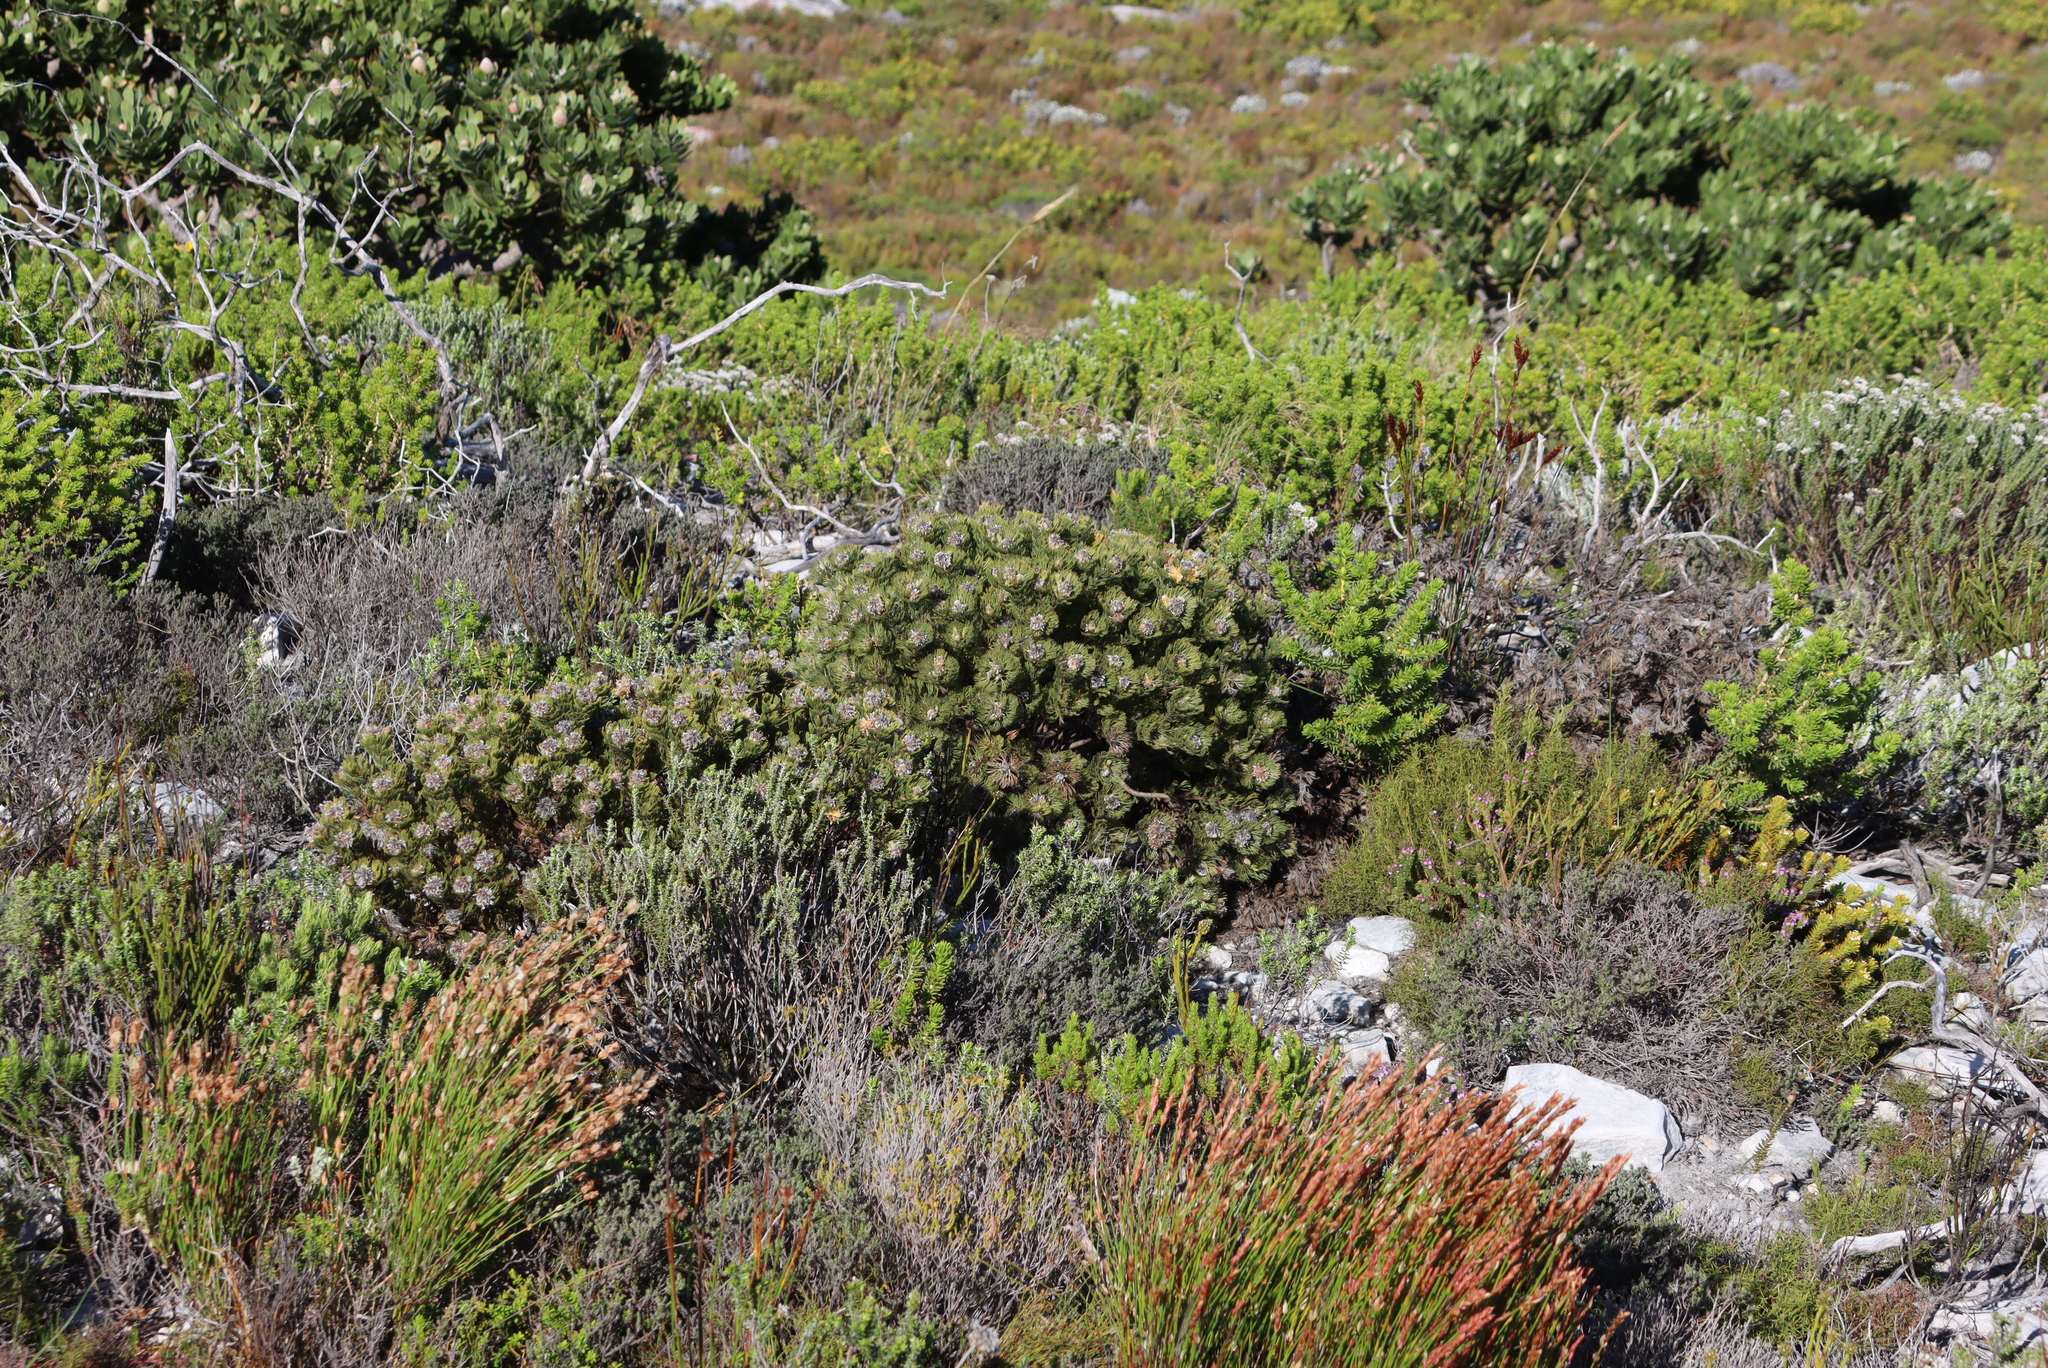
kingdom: Plantae
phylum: Tracheophyta
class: Magnoliopsida
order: Proteales
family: Proteaceae
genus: Serruria
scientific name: Serruria villosa
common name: Golden spiderhead
